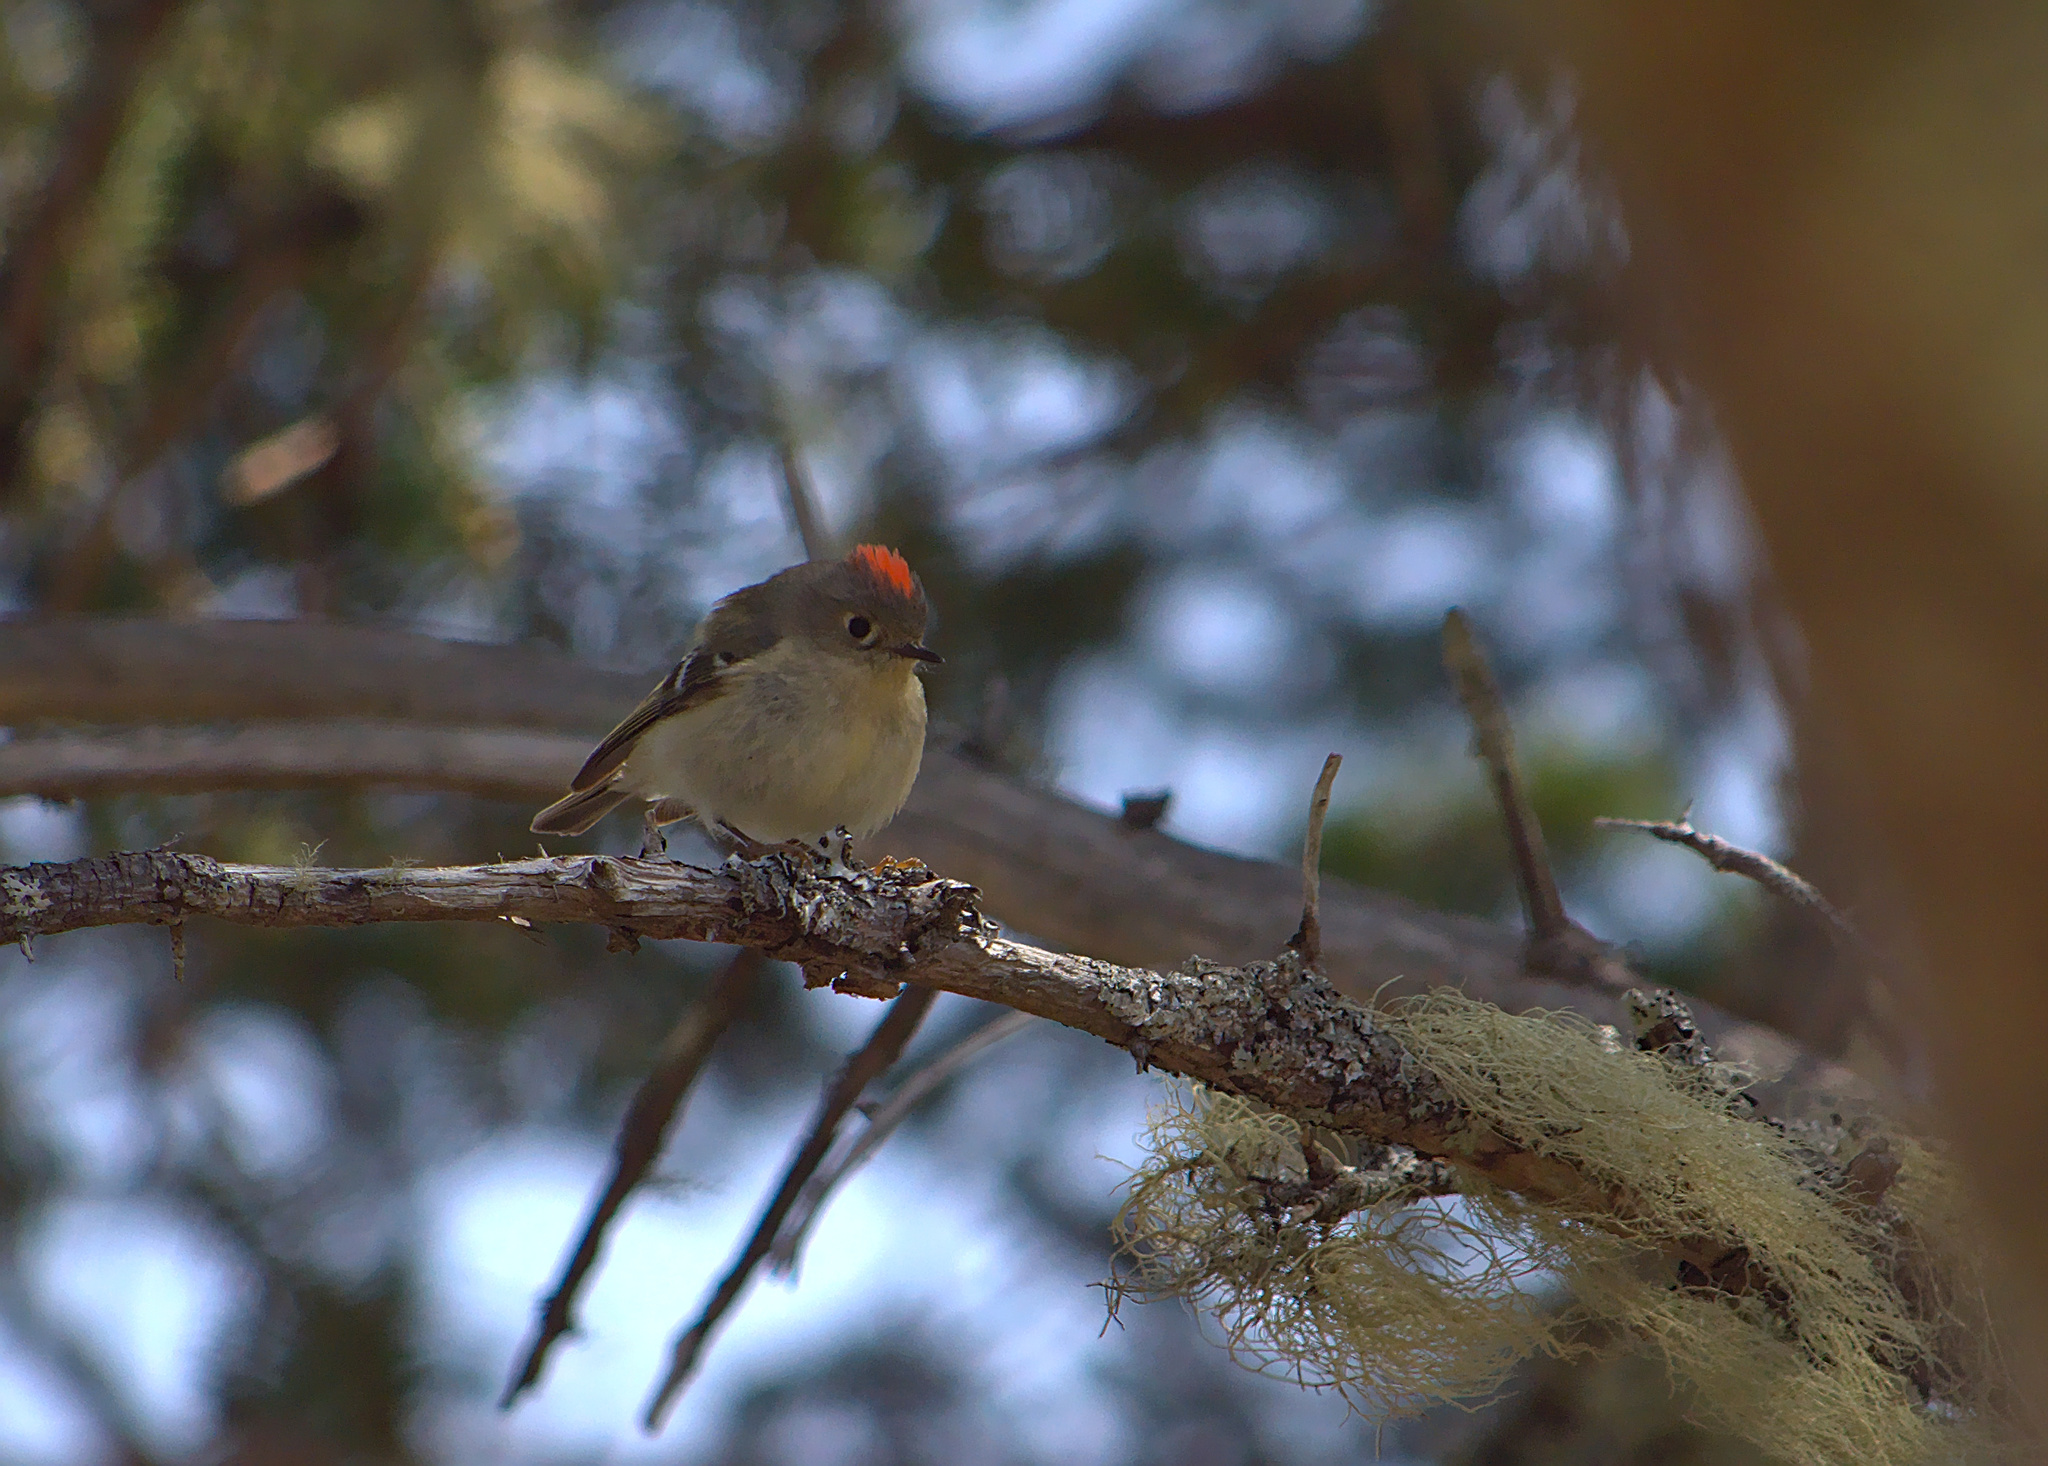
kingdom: Animalia
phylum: Chordata
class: Aves
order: Passeriformes
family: Regulidae
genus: Regulus
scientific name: Regulus calendula
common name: Ruby-crowned kinglet
